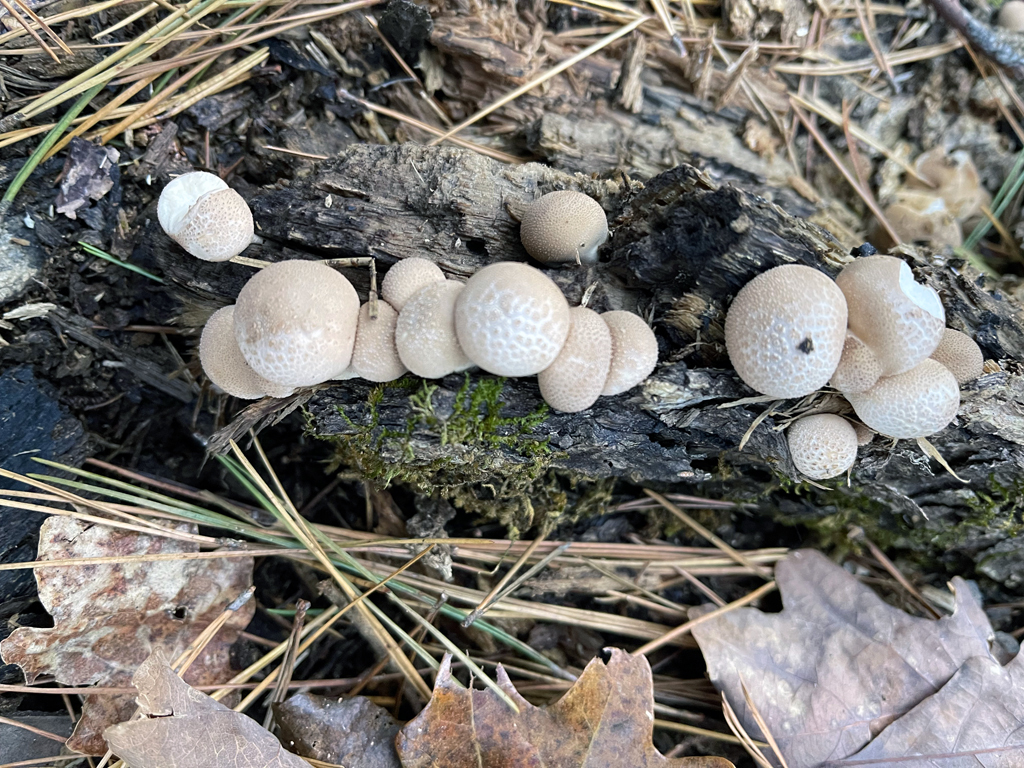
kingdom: Fungi
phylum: Basidiomycota
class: Agaricomycetes
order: Agaricales
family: Lycoperdaceae
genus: Apioperdon
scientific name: Apioperdon pyriforme
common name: Pear-shaped puffball
